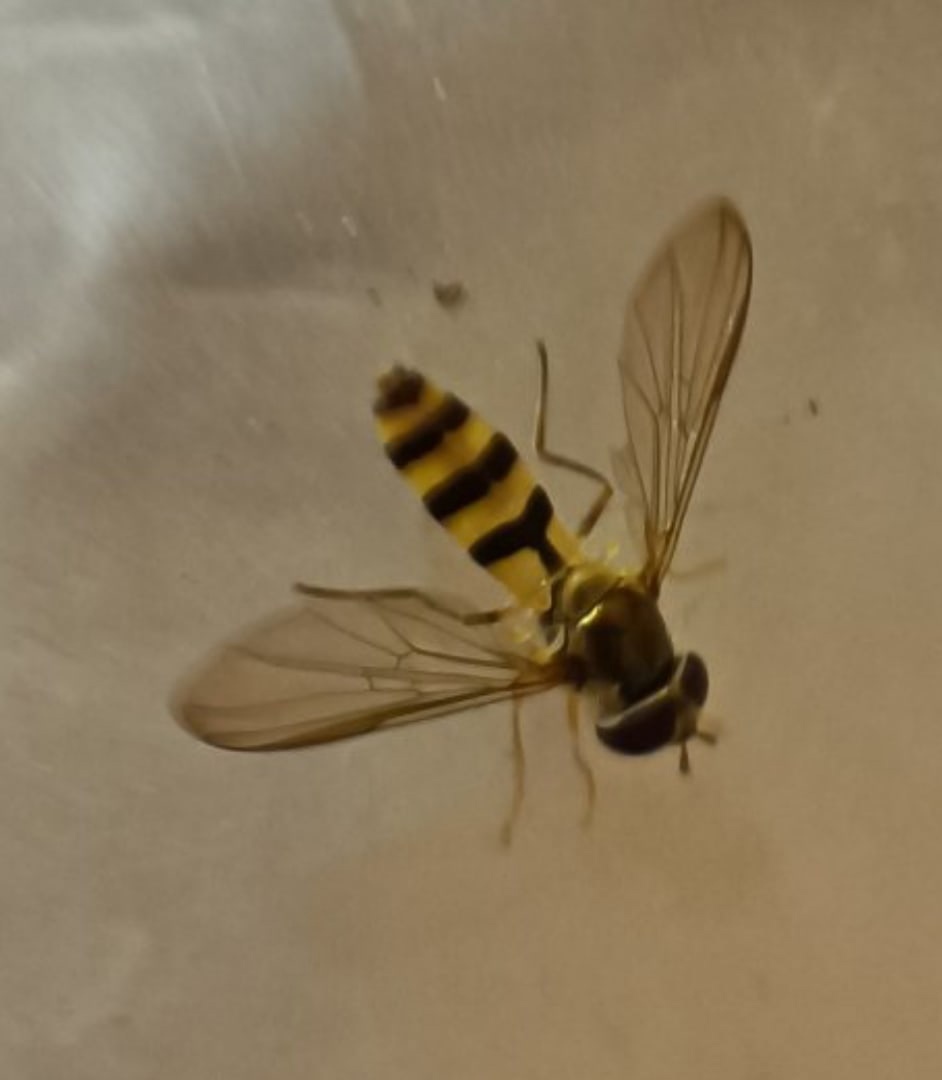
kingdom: Animalia
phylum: Arthropoda
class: Insecta
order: Diptera
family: Syrphidae
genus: Meliscaeva
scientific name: Meliscaeva cinctella
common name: American thintail fly
